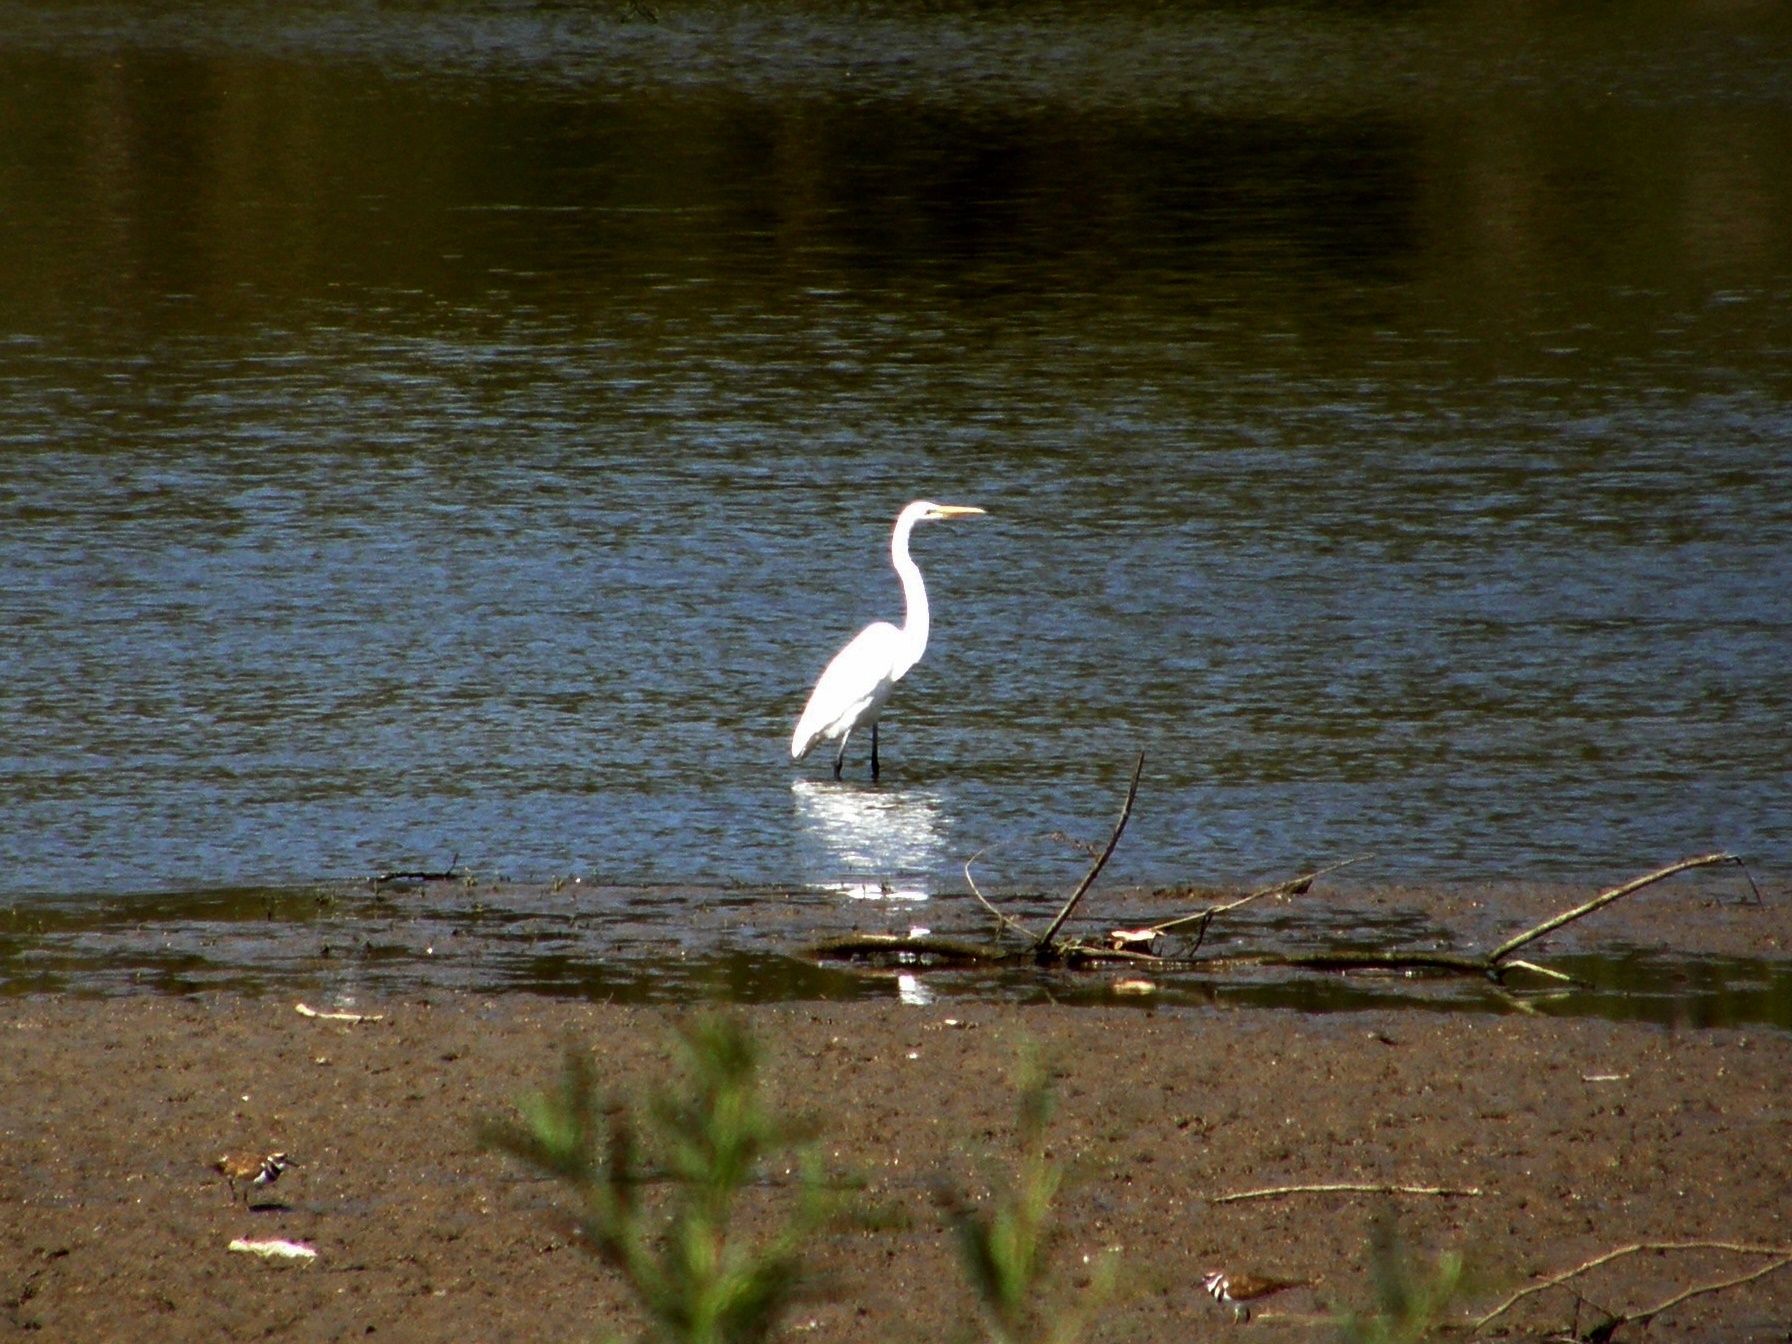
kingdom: Animalia
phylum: Chordata
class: Aves
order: Pelecaniformes
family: Ardeidae
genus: Ardea
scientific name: Ardea alba
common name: Great egret
